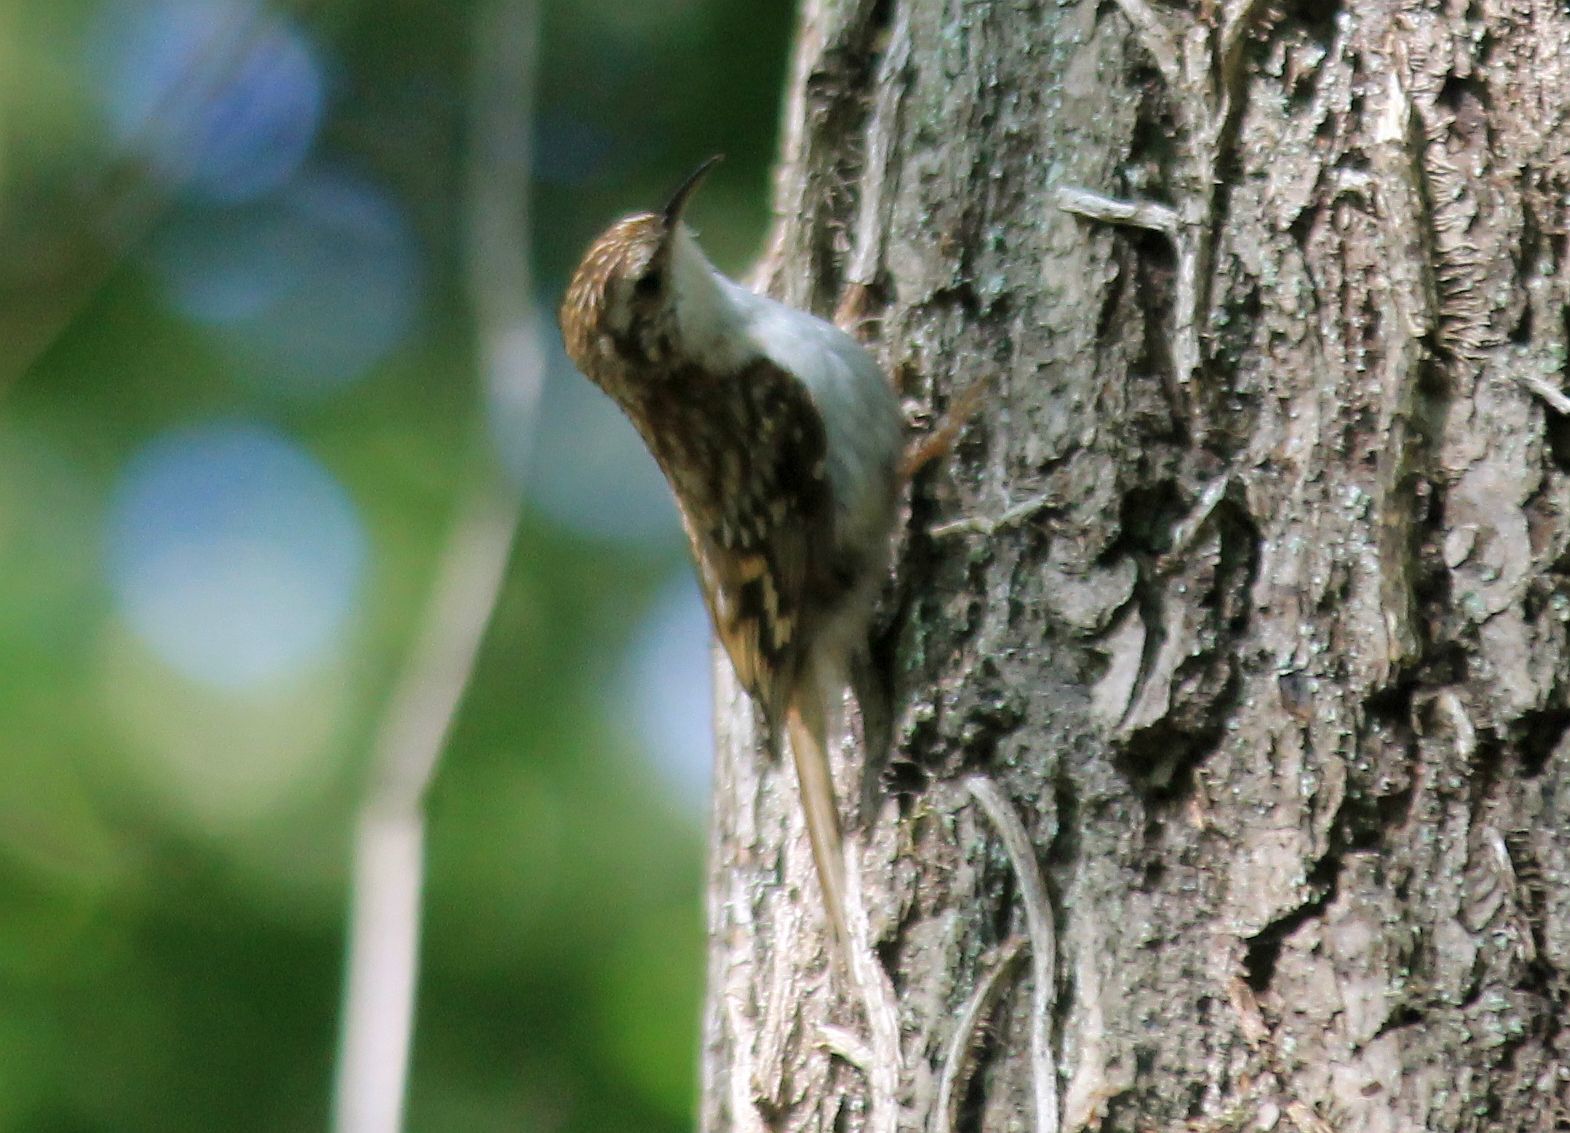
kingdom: Animalia
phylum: Chordata
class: Aves
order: Passeriformes
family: Certhiidae
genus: Certhia
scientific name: Certhia familiaris
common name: Eurasian treecreeper
